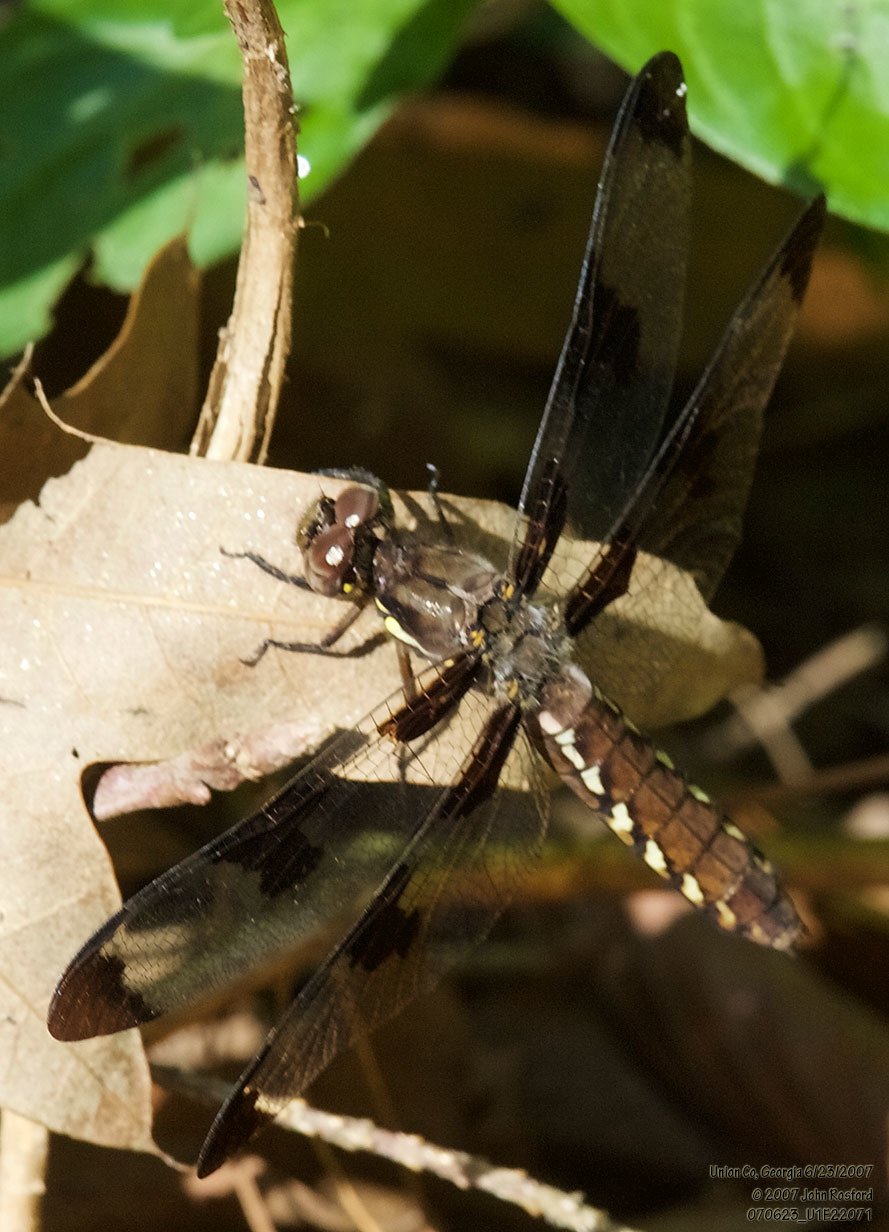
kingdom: Animalia
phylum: Arthropoda
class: Insecta
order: Odonata
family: Libellulidae
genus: Plathemis
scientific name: Plathemis lydia
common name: Common whitetail
